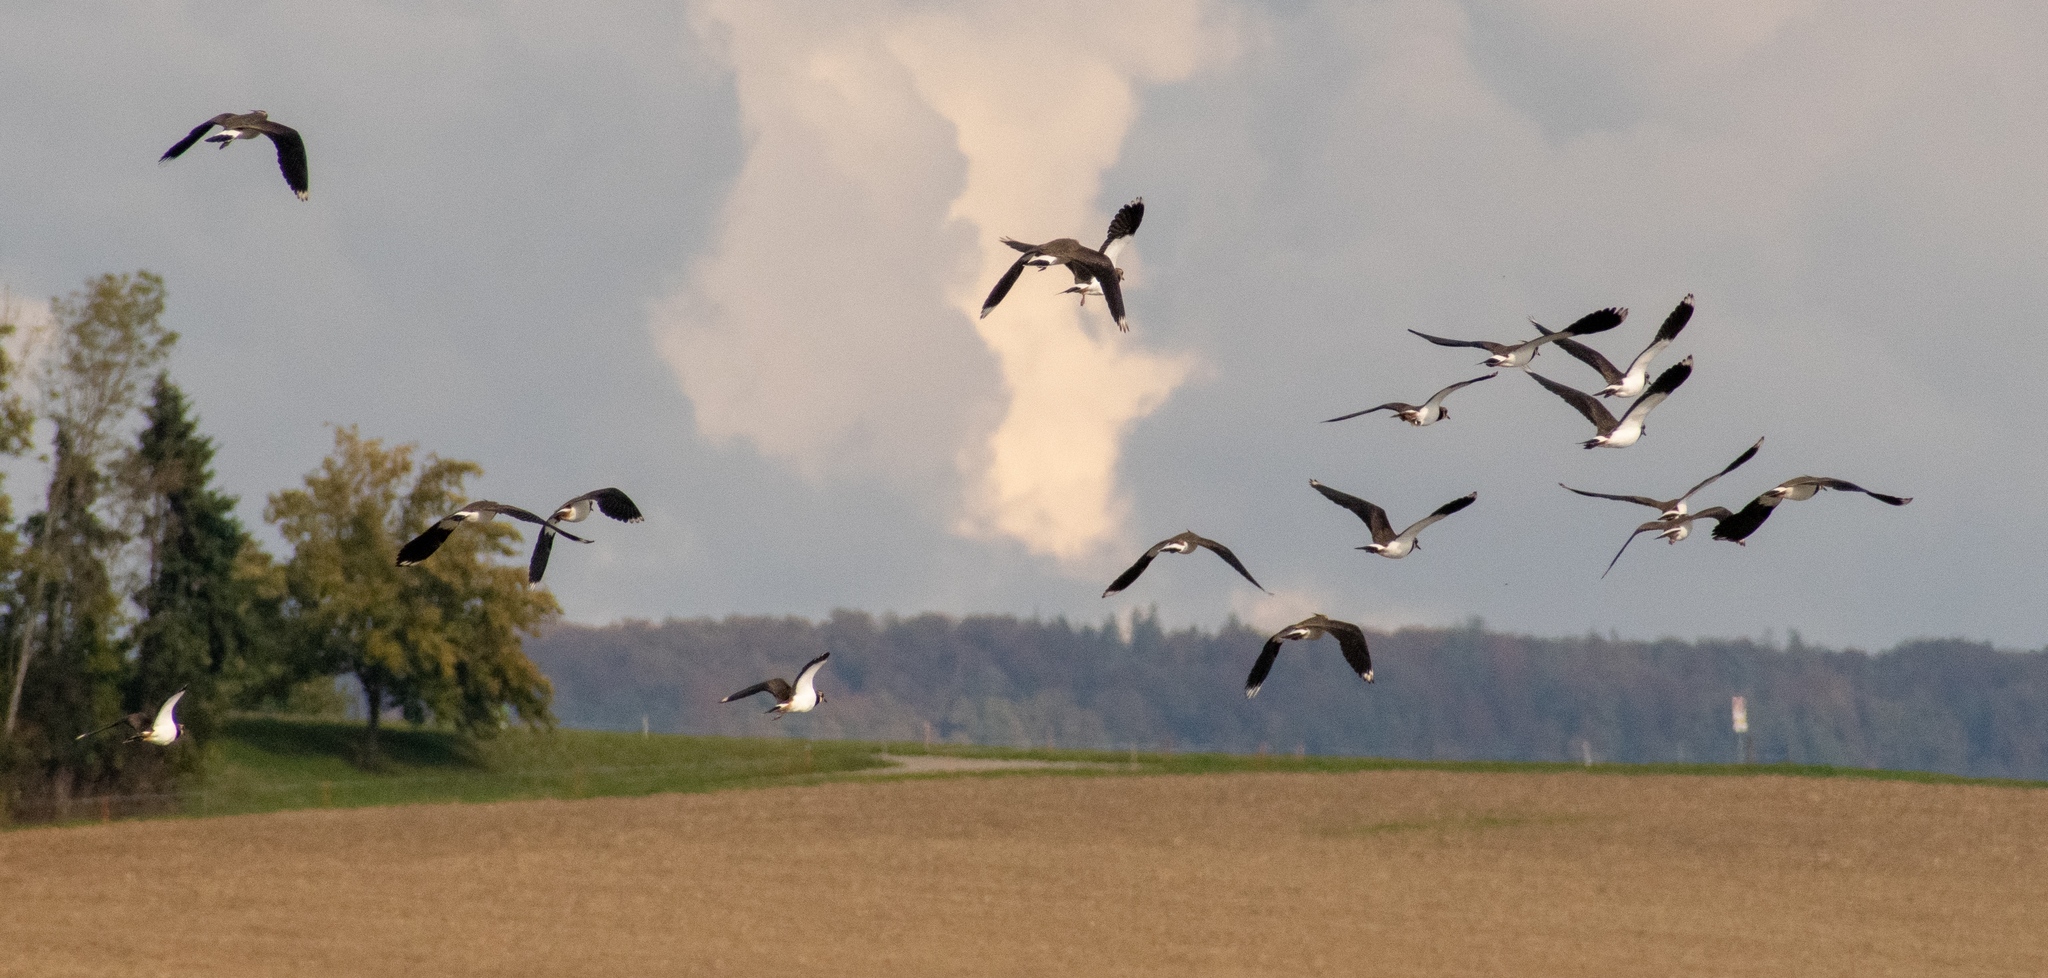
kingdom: Animalia
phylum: Chordata
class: Aves
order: Charadriiformes
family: Charadriidae
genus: Vanellus
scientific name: Vanellus vanellus
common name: Northern lapwing
